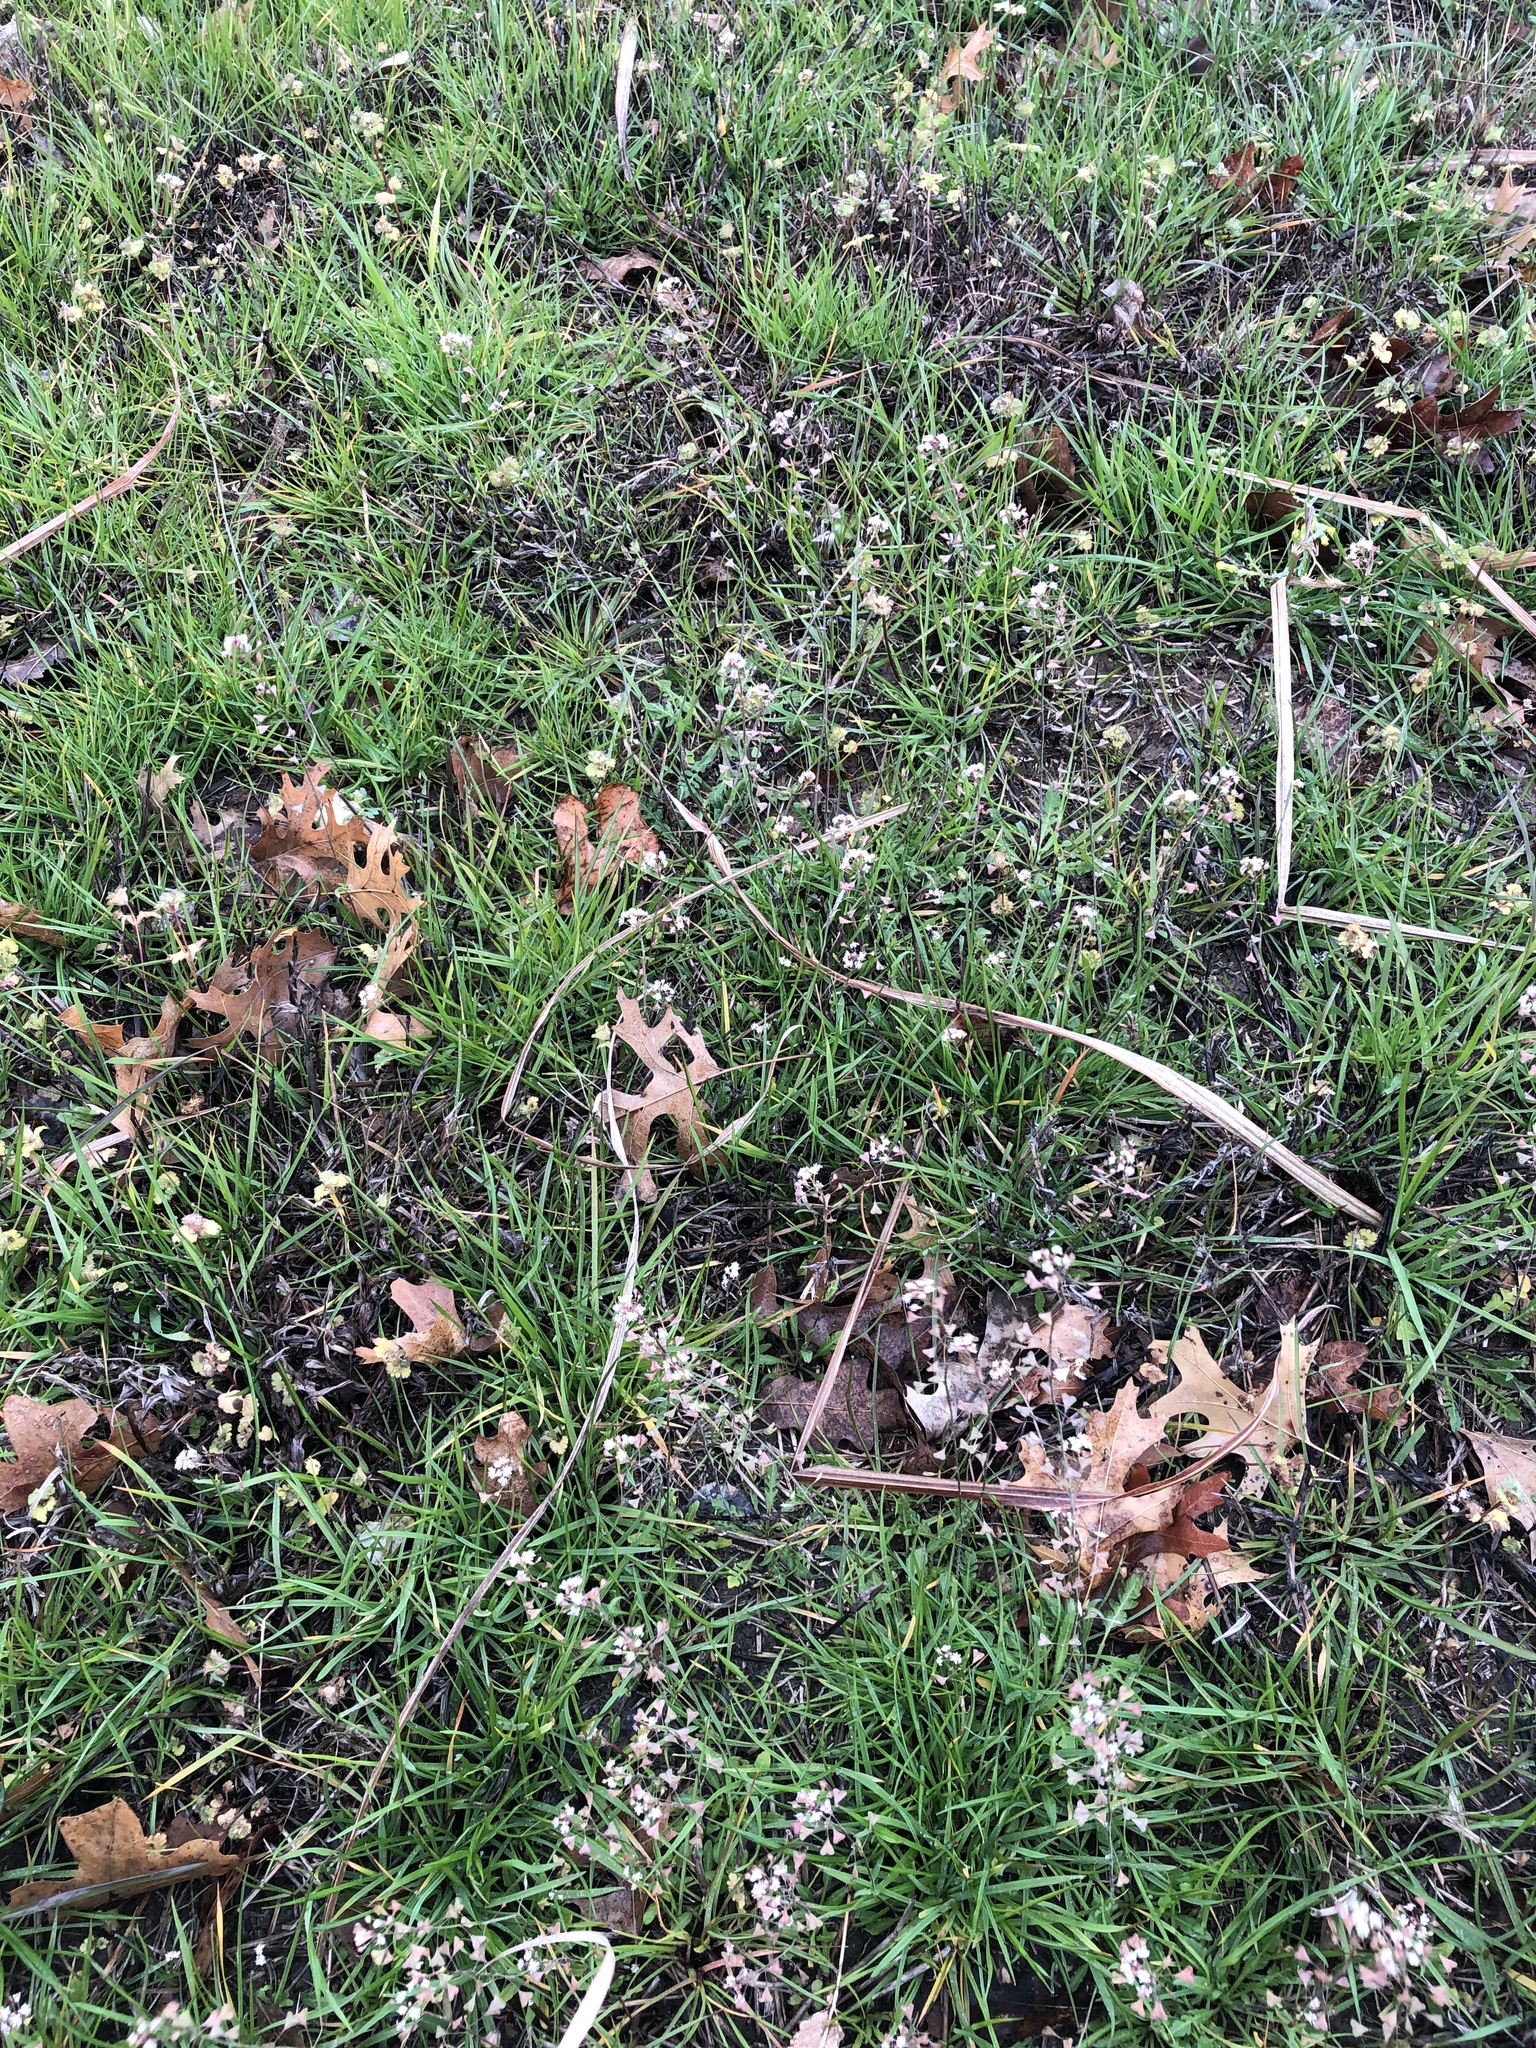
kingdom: Plantae
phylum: Tracheophyta
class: Magnoliopsida
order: Brassicales
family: Brassicaceae
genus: Capsella
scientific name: Capsella bursa-pastoris
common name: Shepherd's purse
